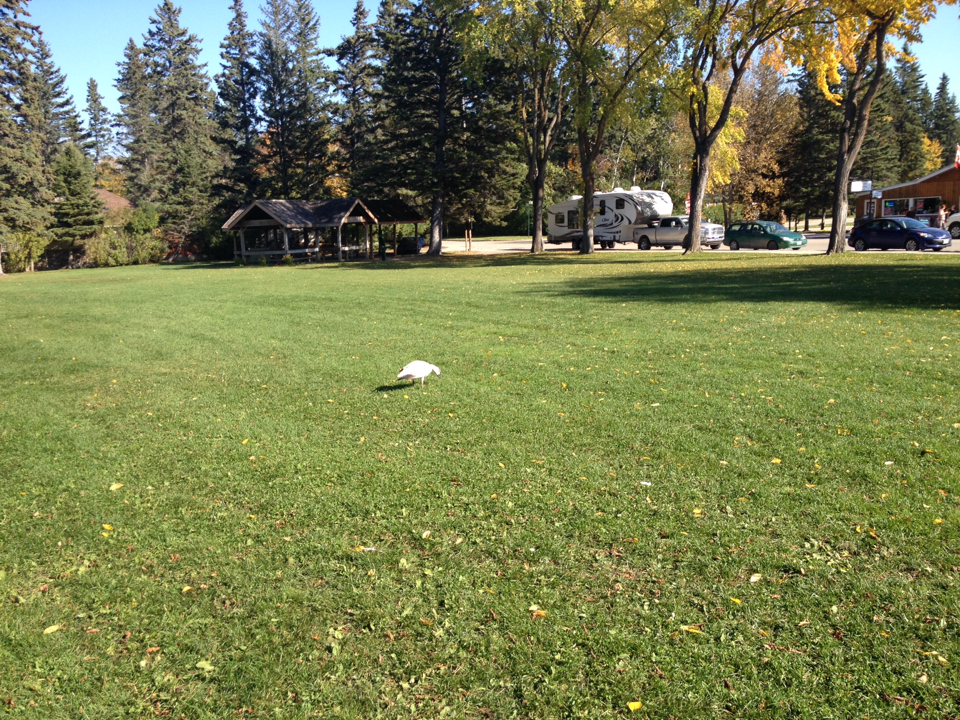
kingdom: Animalia
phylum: Chordata
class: Aves
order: Anseriformes
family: Anatidae
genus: Anser
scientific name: Anser caerulescens
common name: Snow goose
